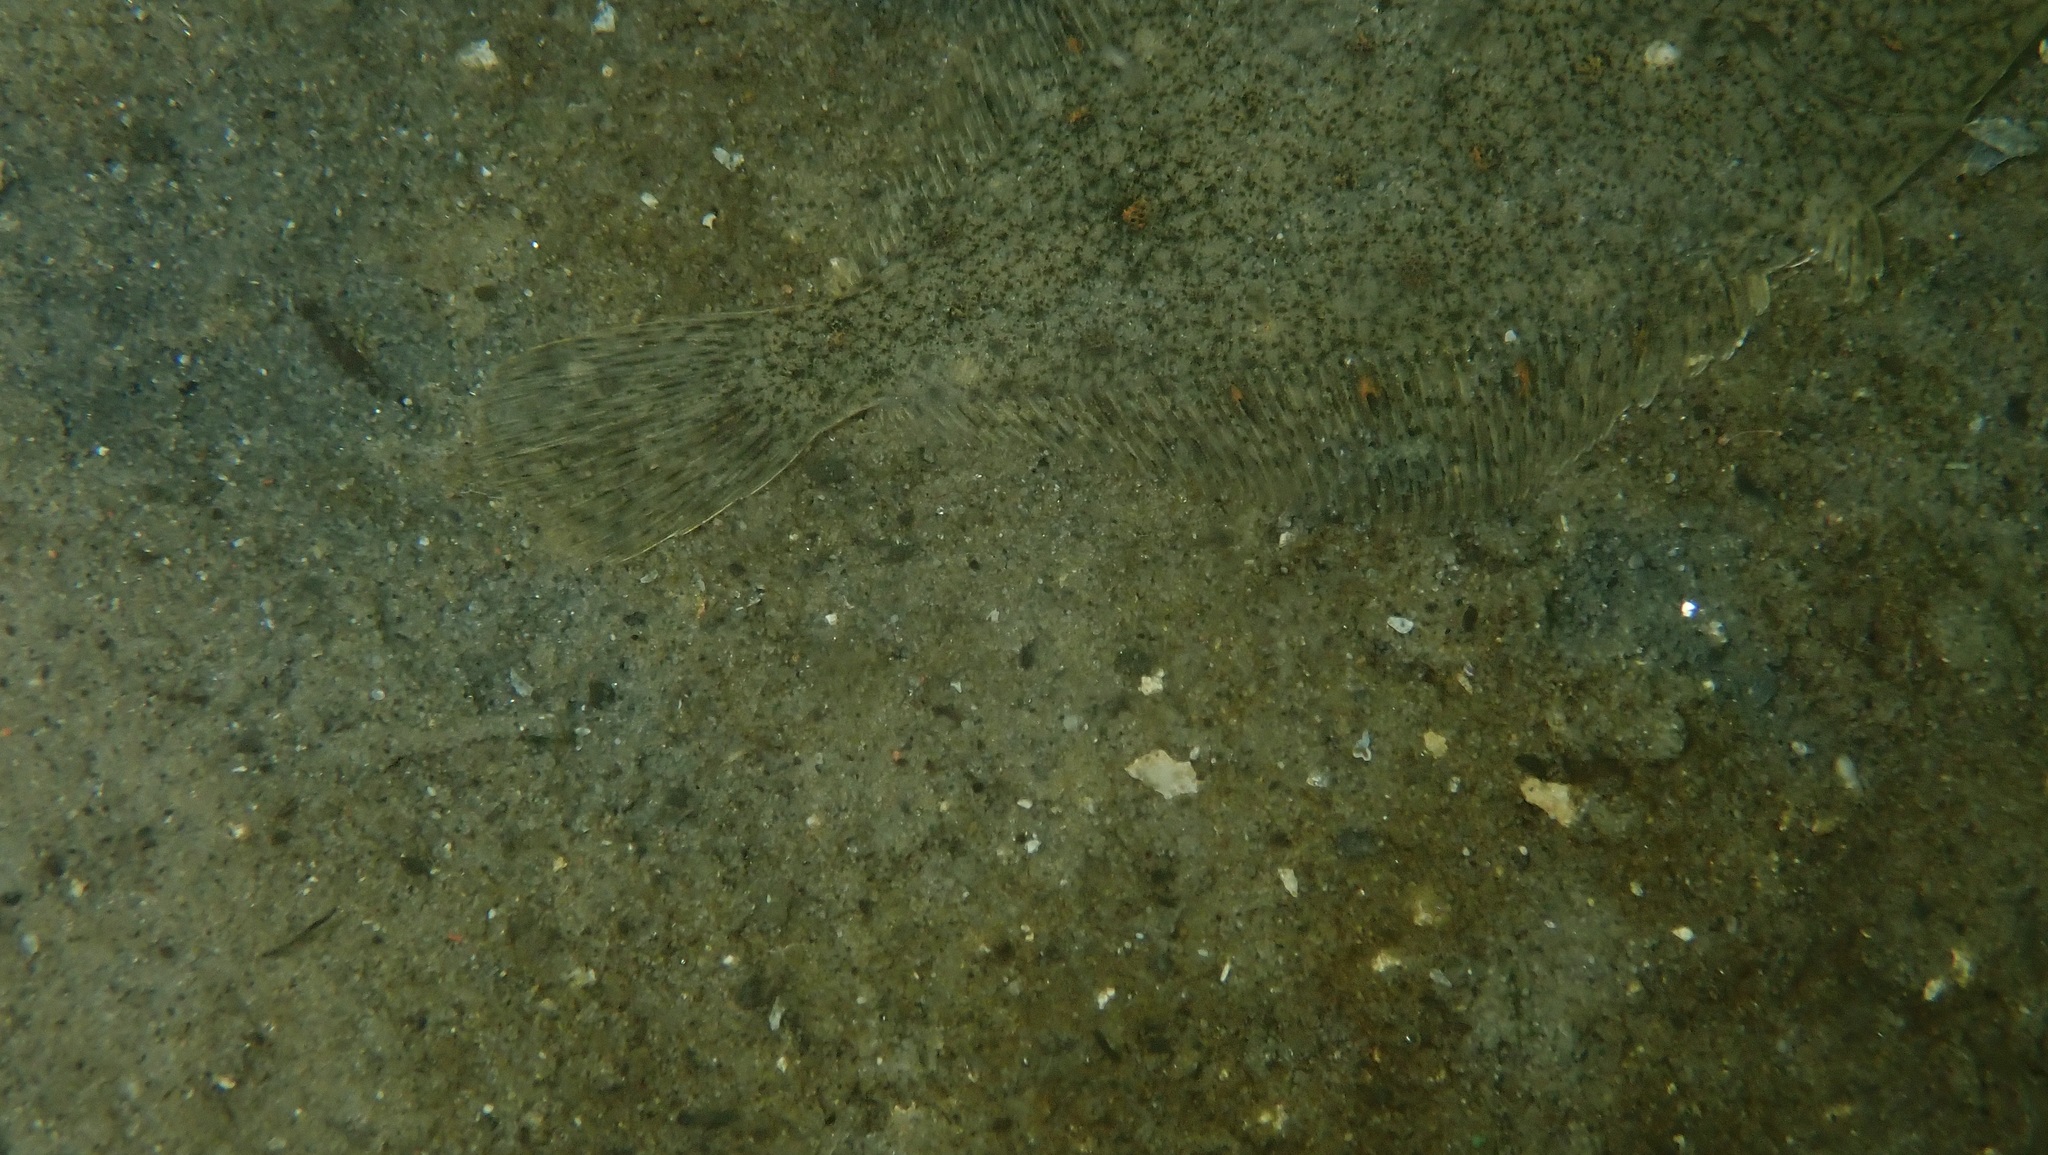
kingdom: Animalia
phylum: Chordata
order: Pleuronectiformes
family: Pleuronectidae
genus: Platichthys
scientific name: Platichthys flesus
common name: European flounder
